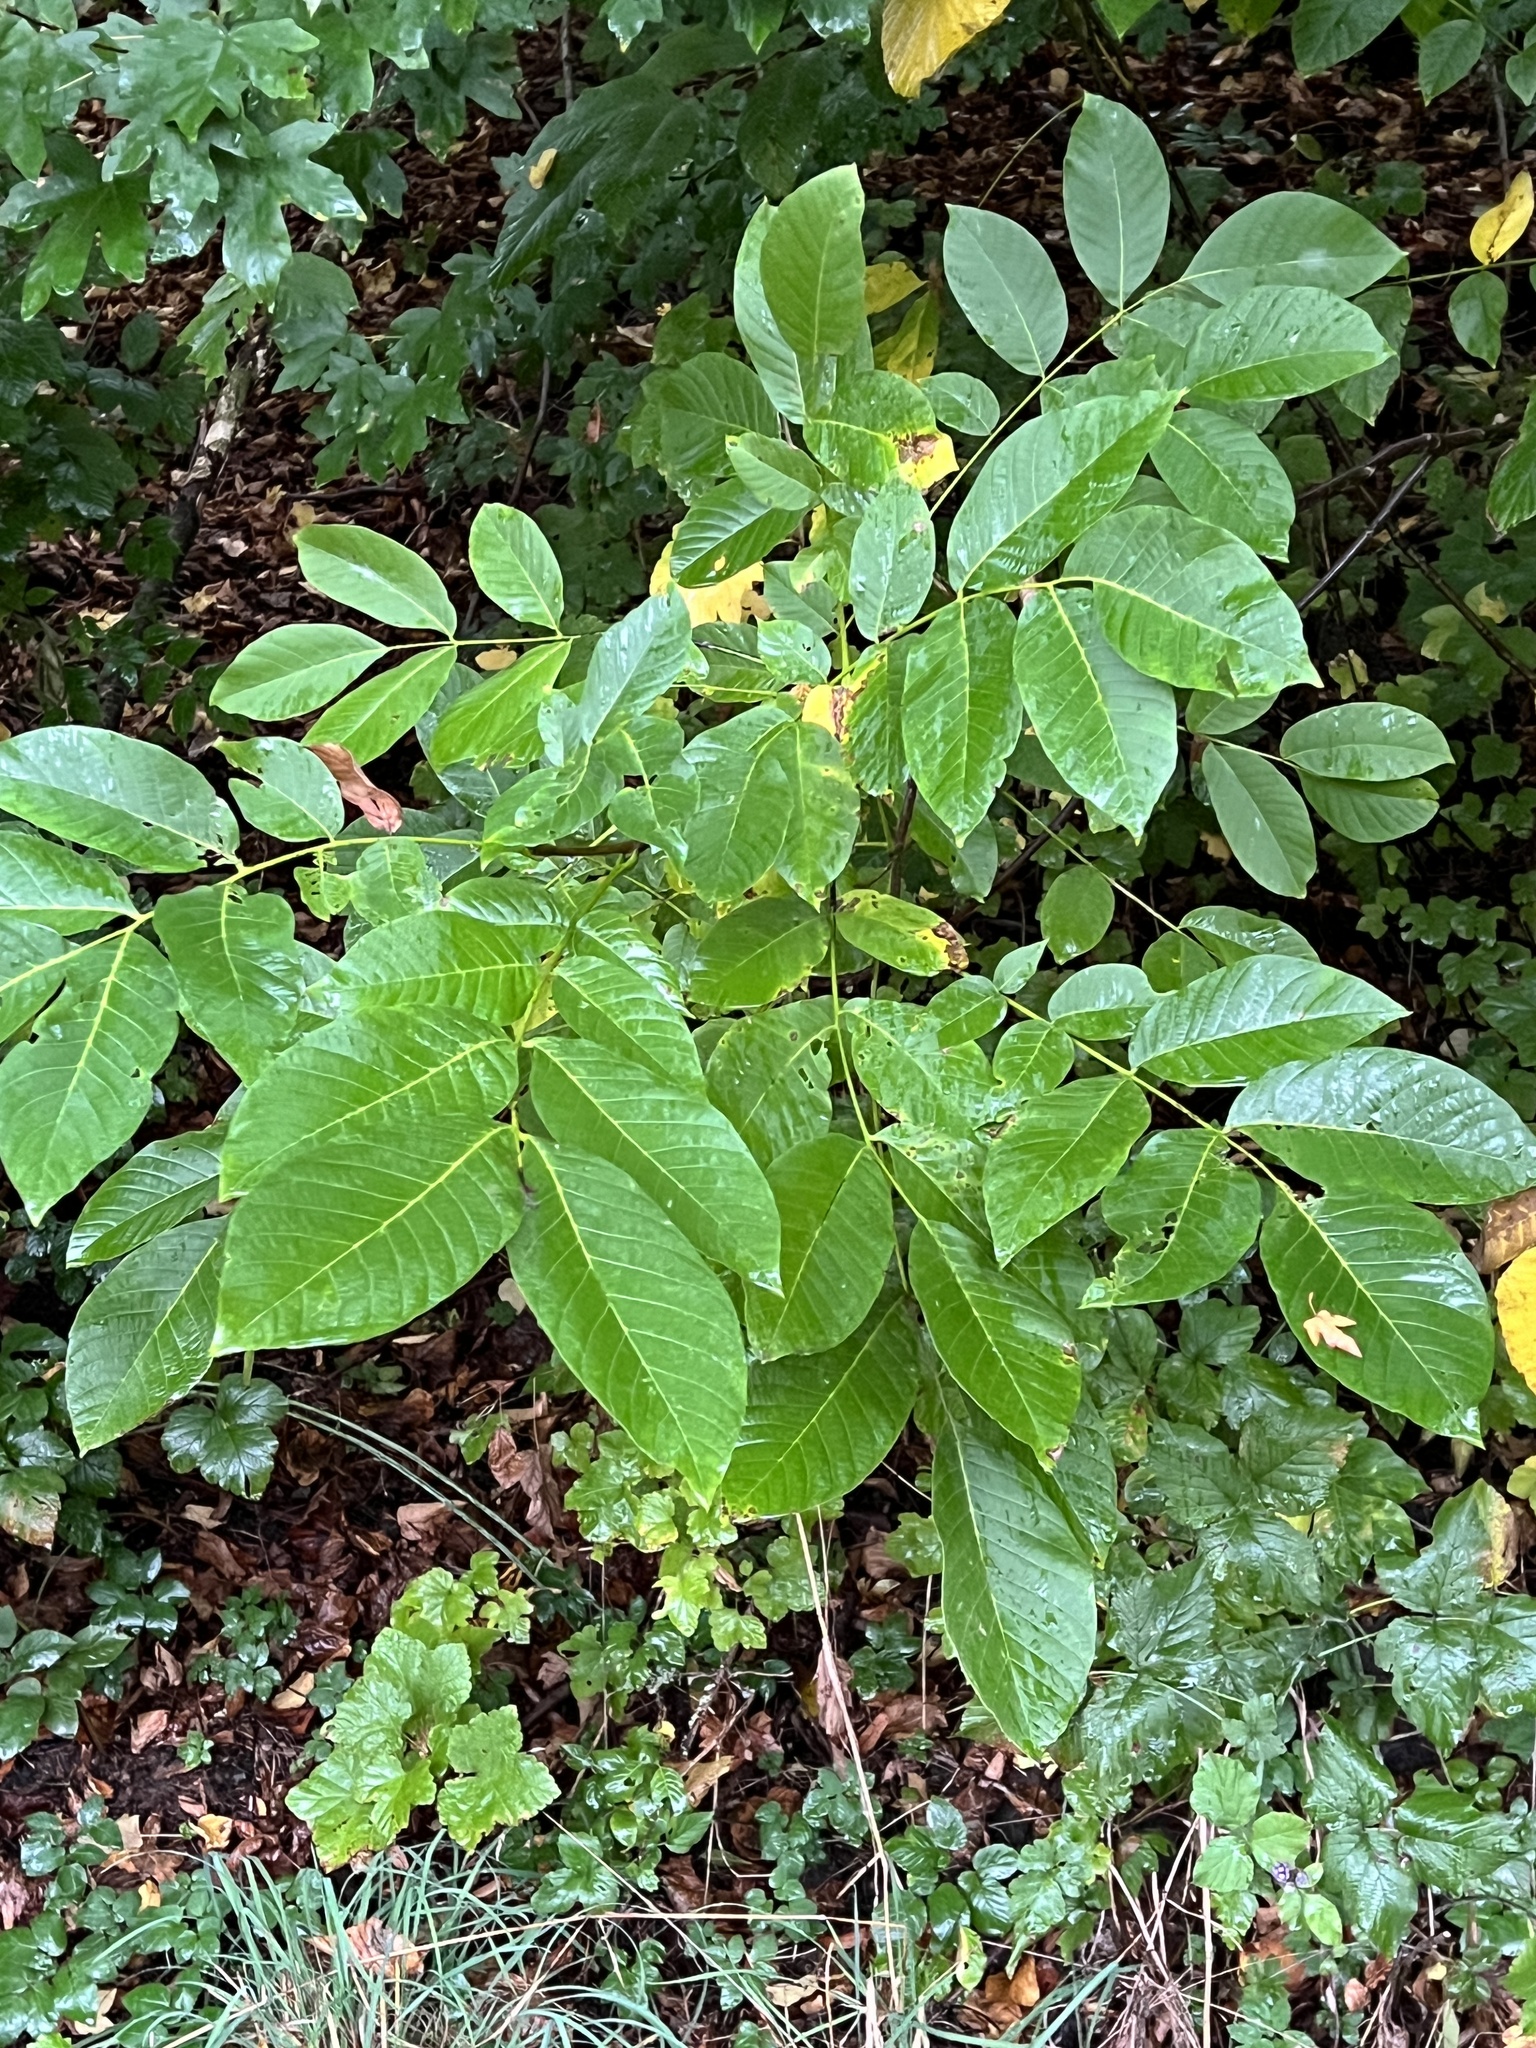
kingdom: Plantae
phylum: Tracheophyta
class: Magnoliopsida
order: Fagales
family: Juglandaceae
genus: Juglans
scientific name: Juglans regia
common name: Walnut
